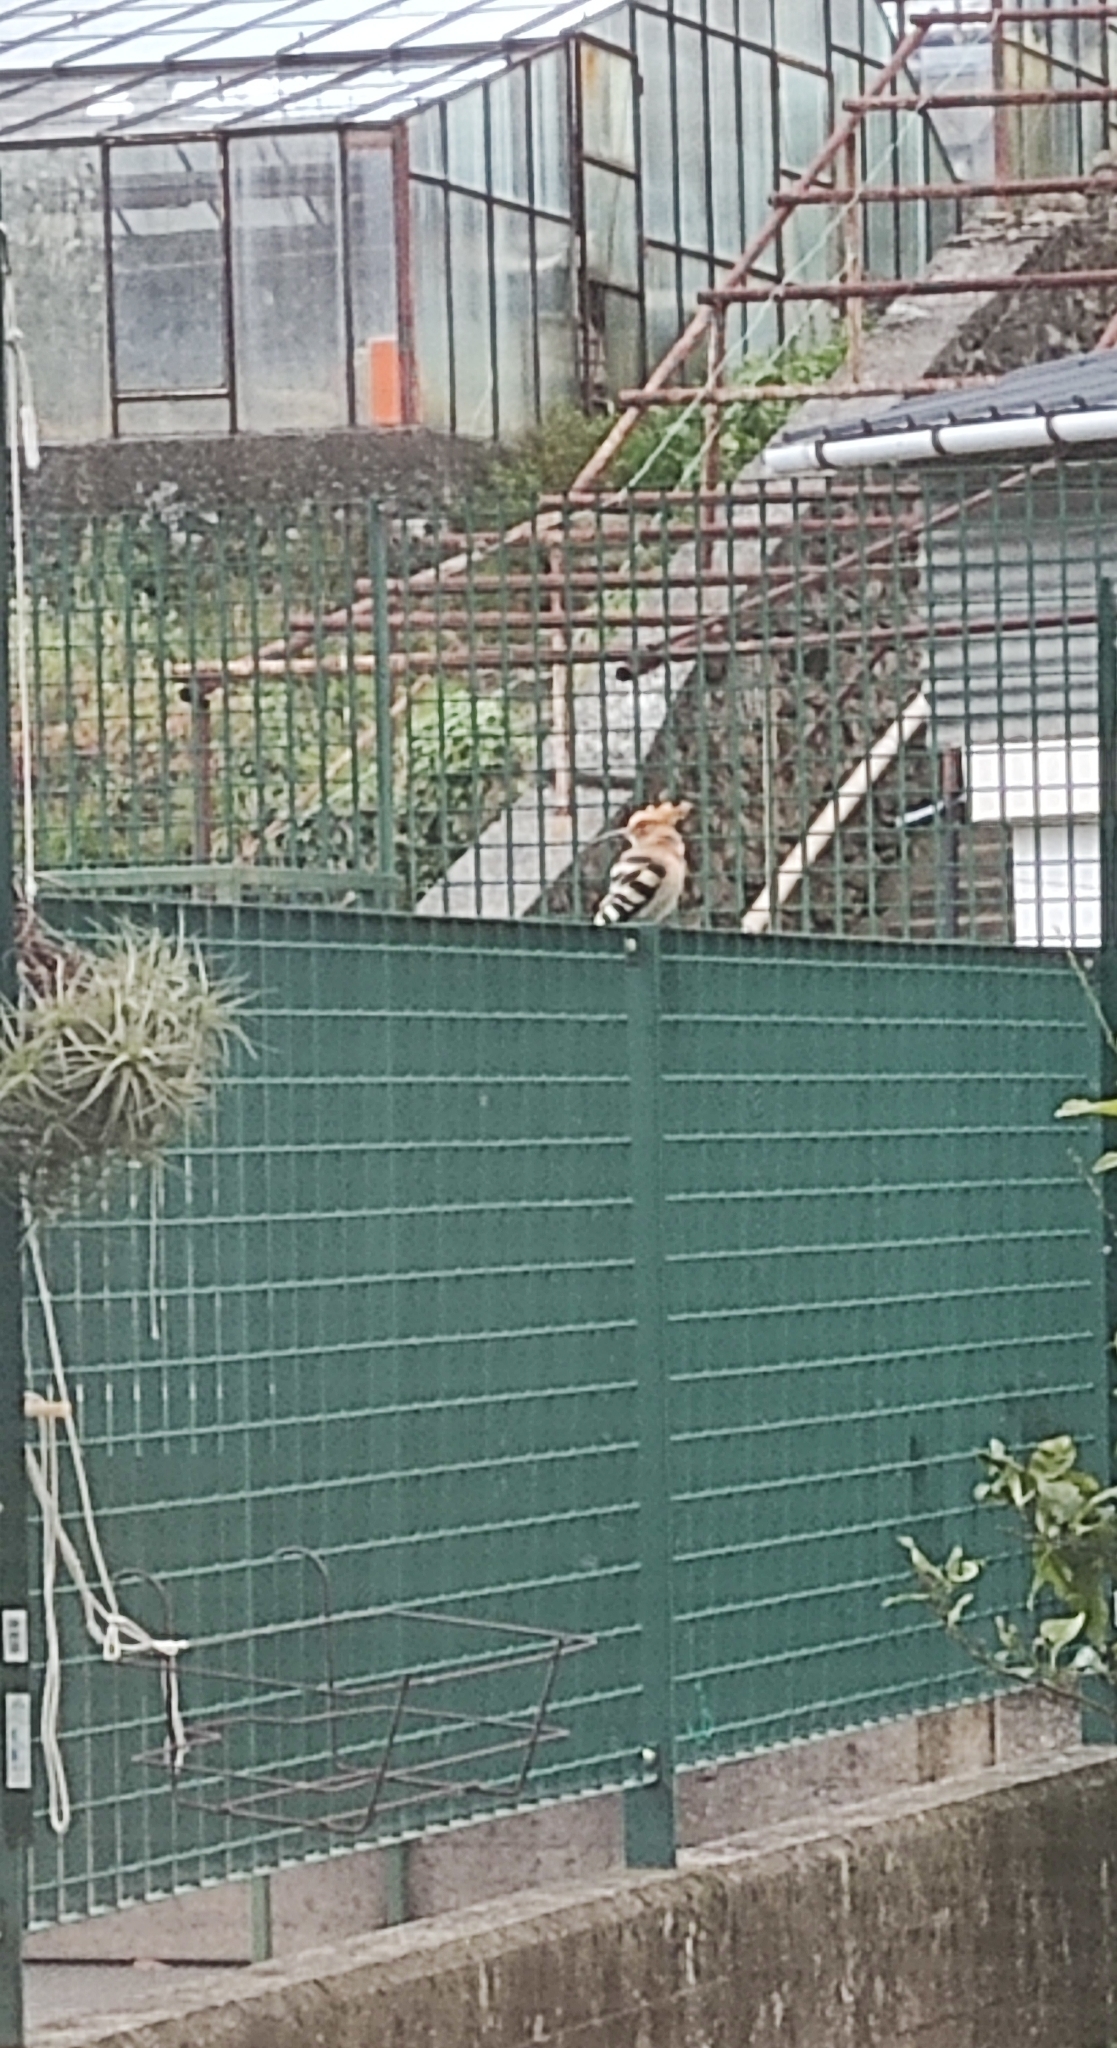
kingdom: Animalia
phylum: Chordata
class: Aves
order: Bucerotiformes
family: Upupidae
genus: Upupa
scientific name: Upupa epops
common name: Eurasian hoopoe
